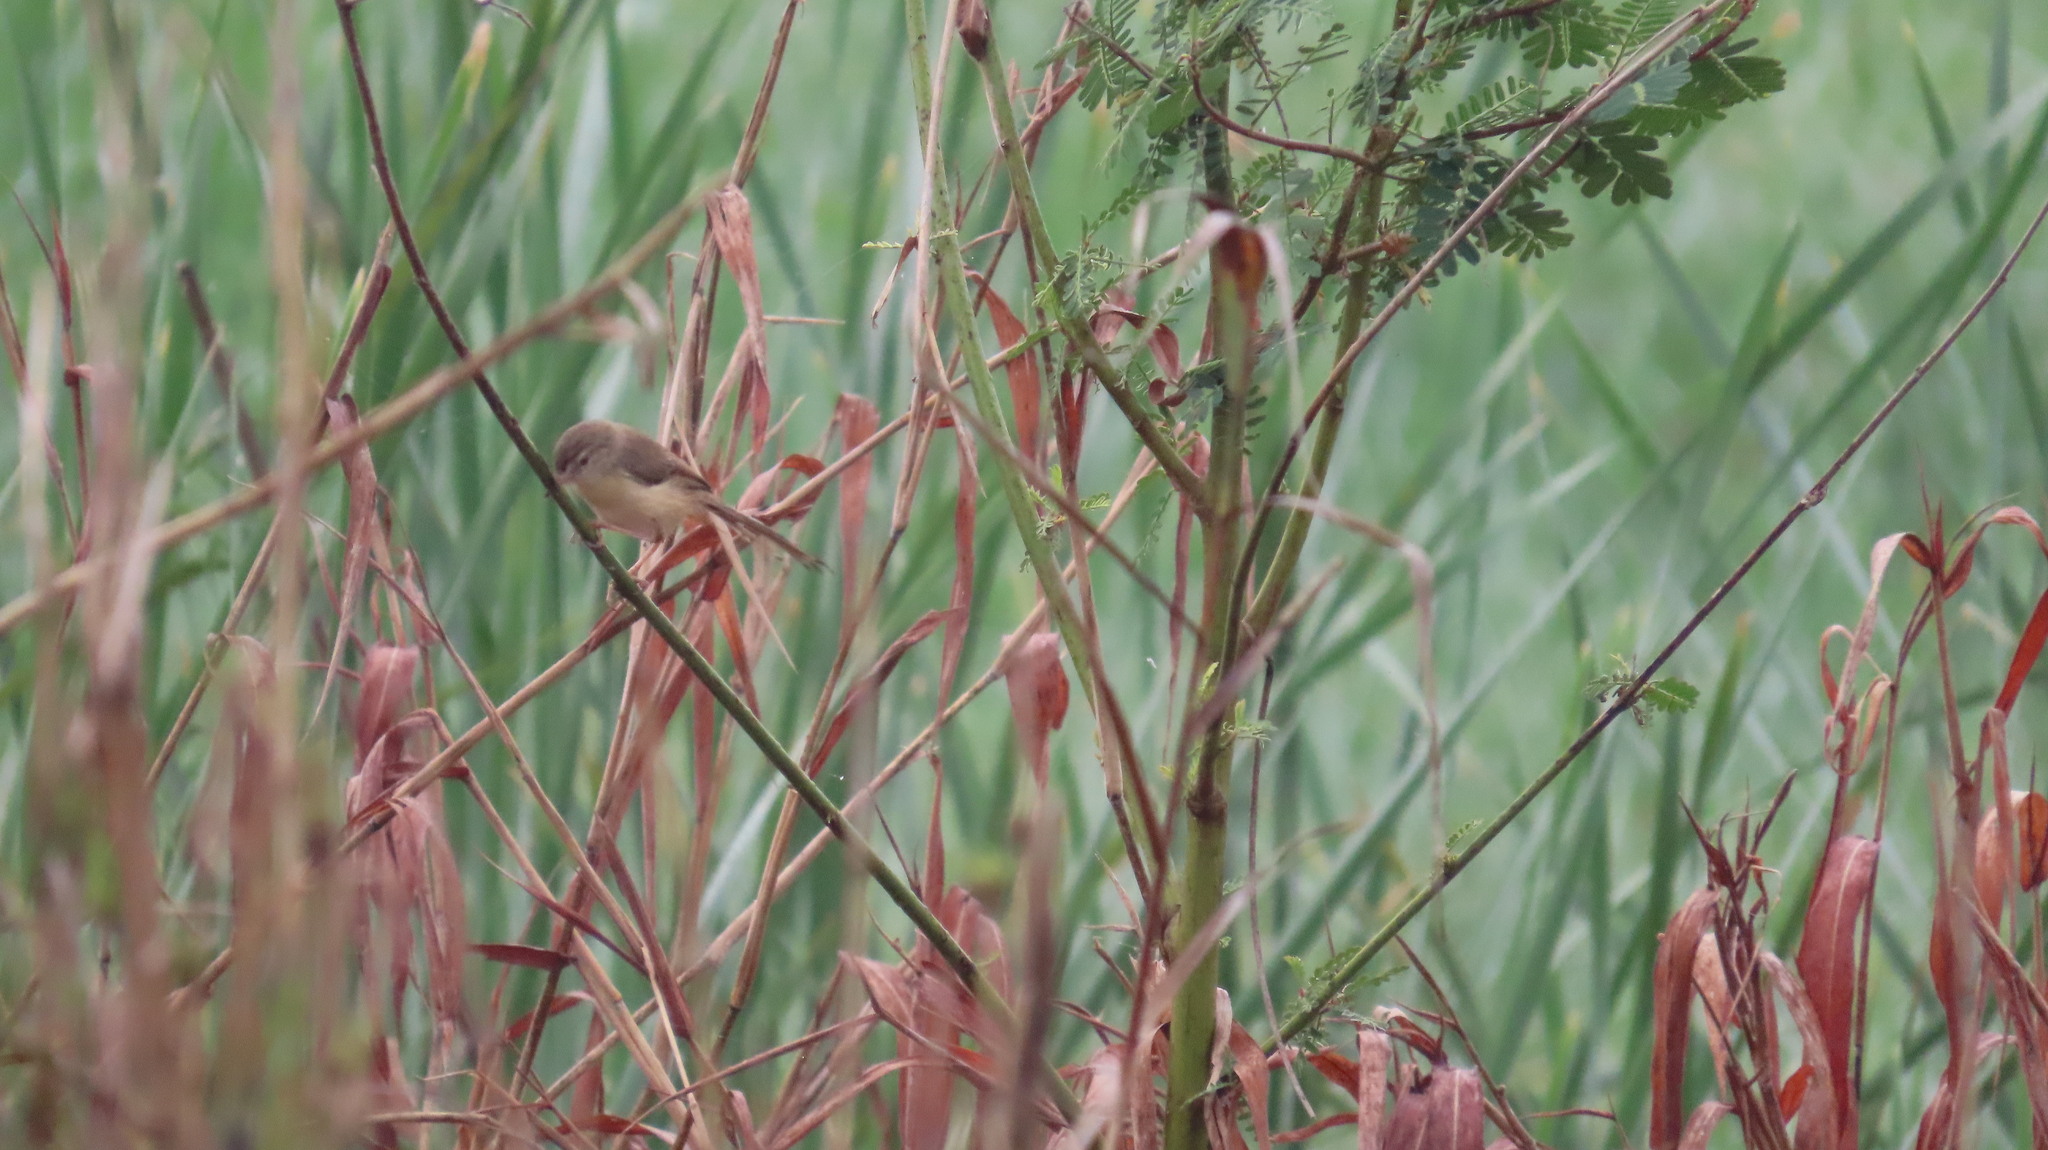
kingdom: Animalia
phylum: Chordata
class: Aves
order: Passeriformes
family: Cisticolidae
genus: Prinia
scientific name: Prinia inornata
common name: Plain prinia
